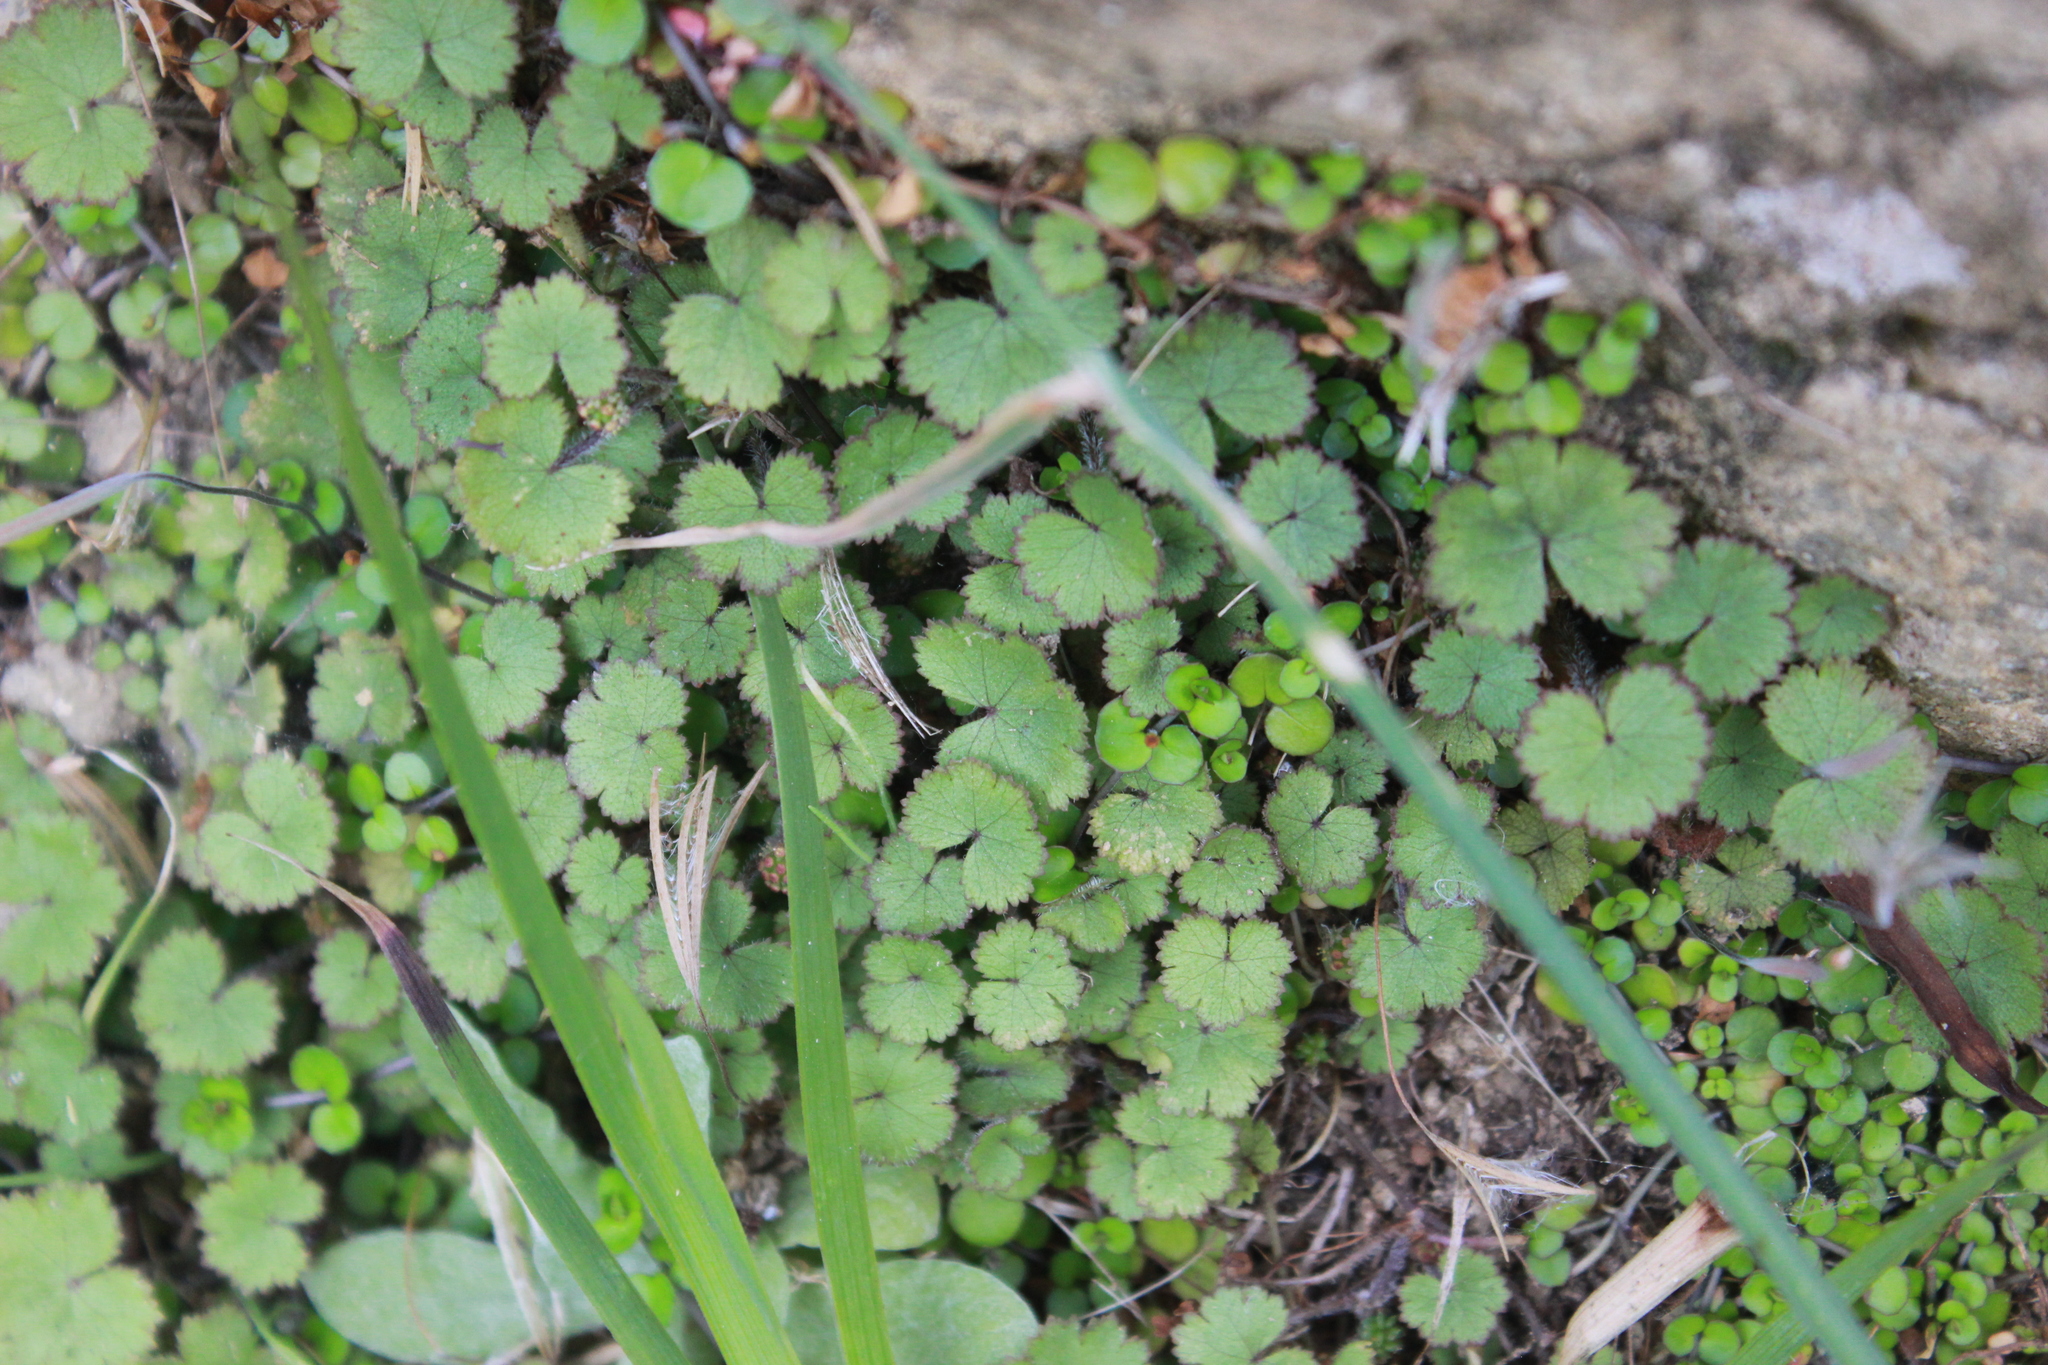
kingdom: Plantae
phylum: Tracheophyta
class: Magnoliopsida
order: Apiales
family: Araliaceae
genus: Hydrocotyle
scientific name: Hydrocotyle moschata
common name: Hairy pennywort
